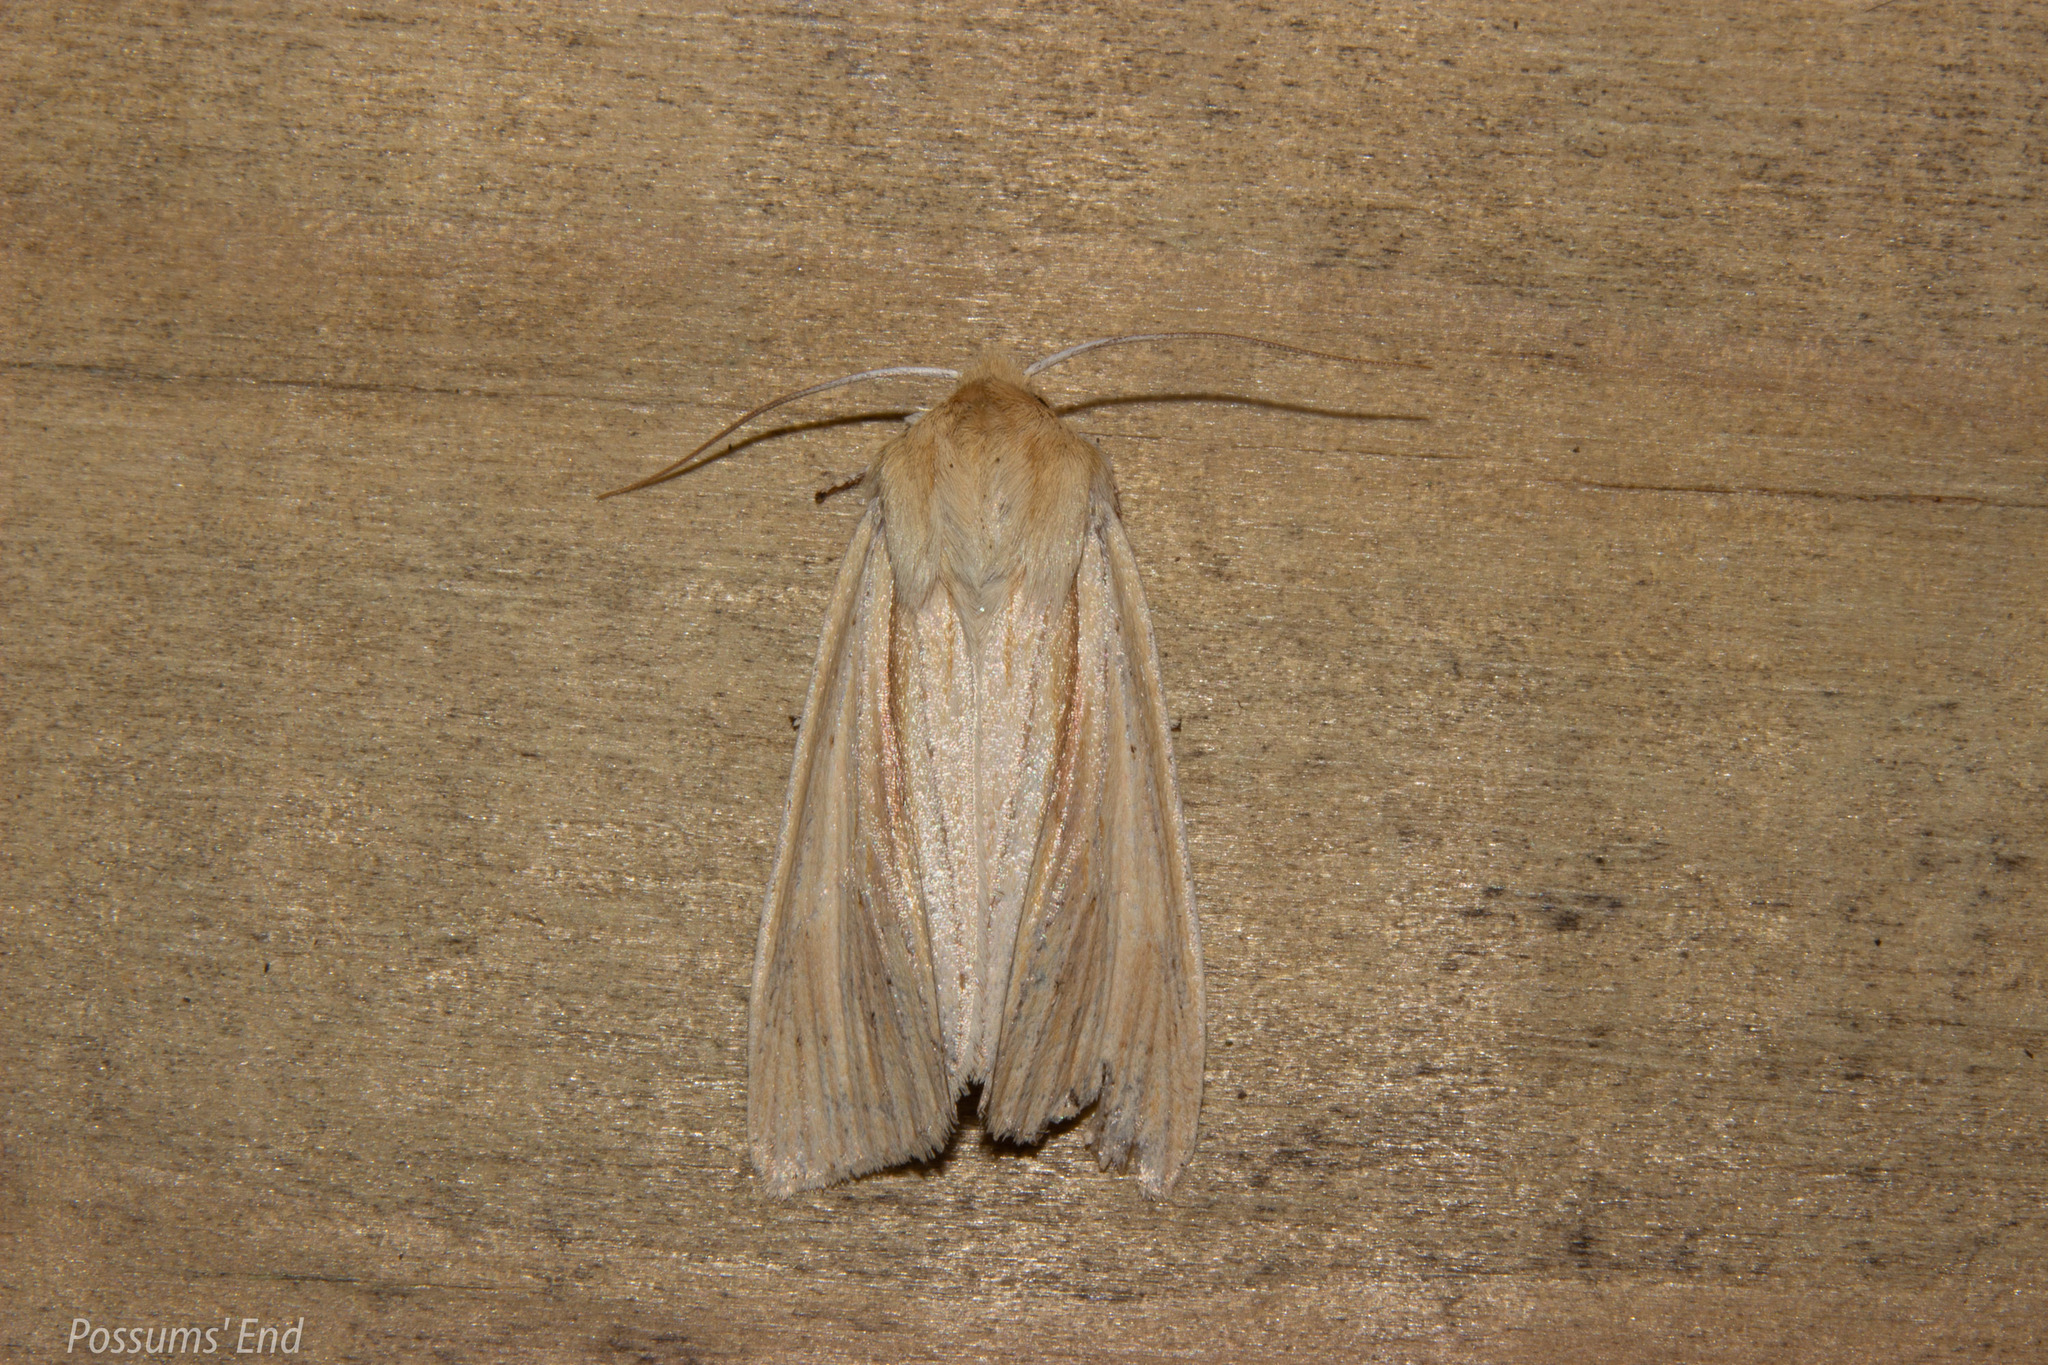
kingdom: Animalia
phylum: Arthropoda
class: Insecta
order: Lepidoptera
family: Noctuidae
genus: Ichneutica
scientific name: Ichneutica semivittata
